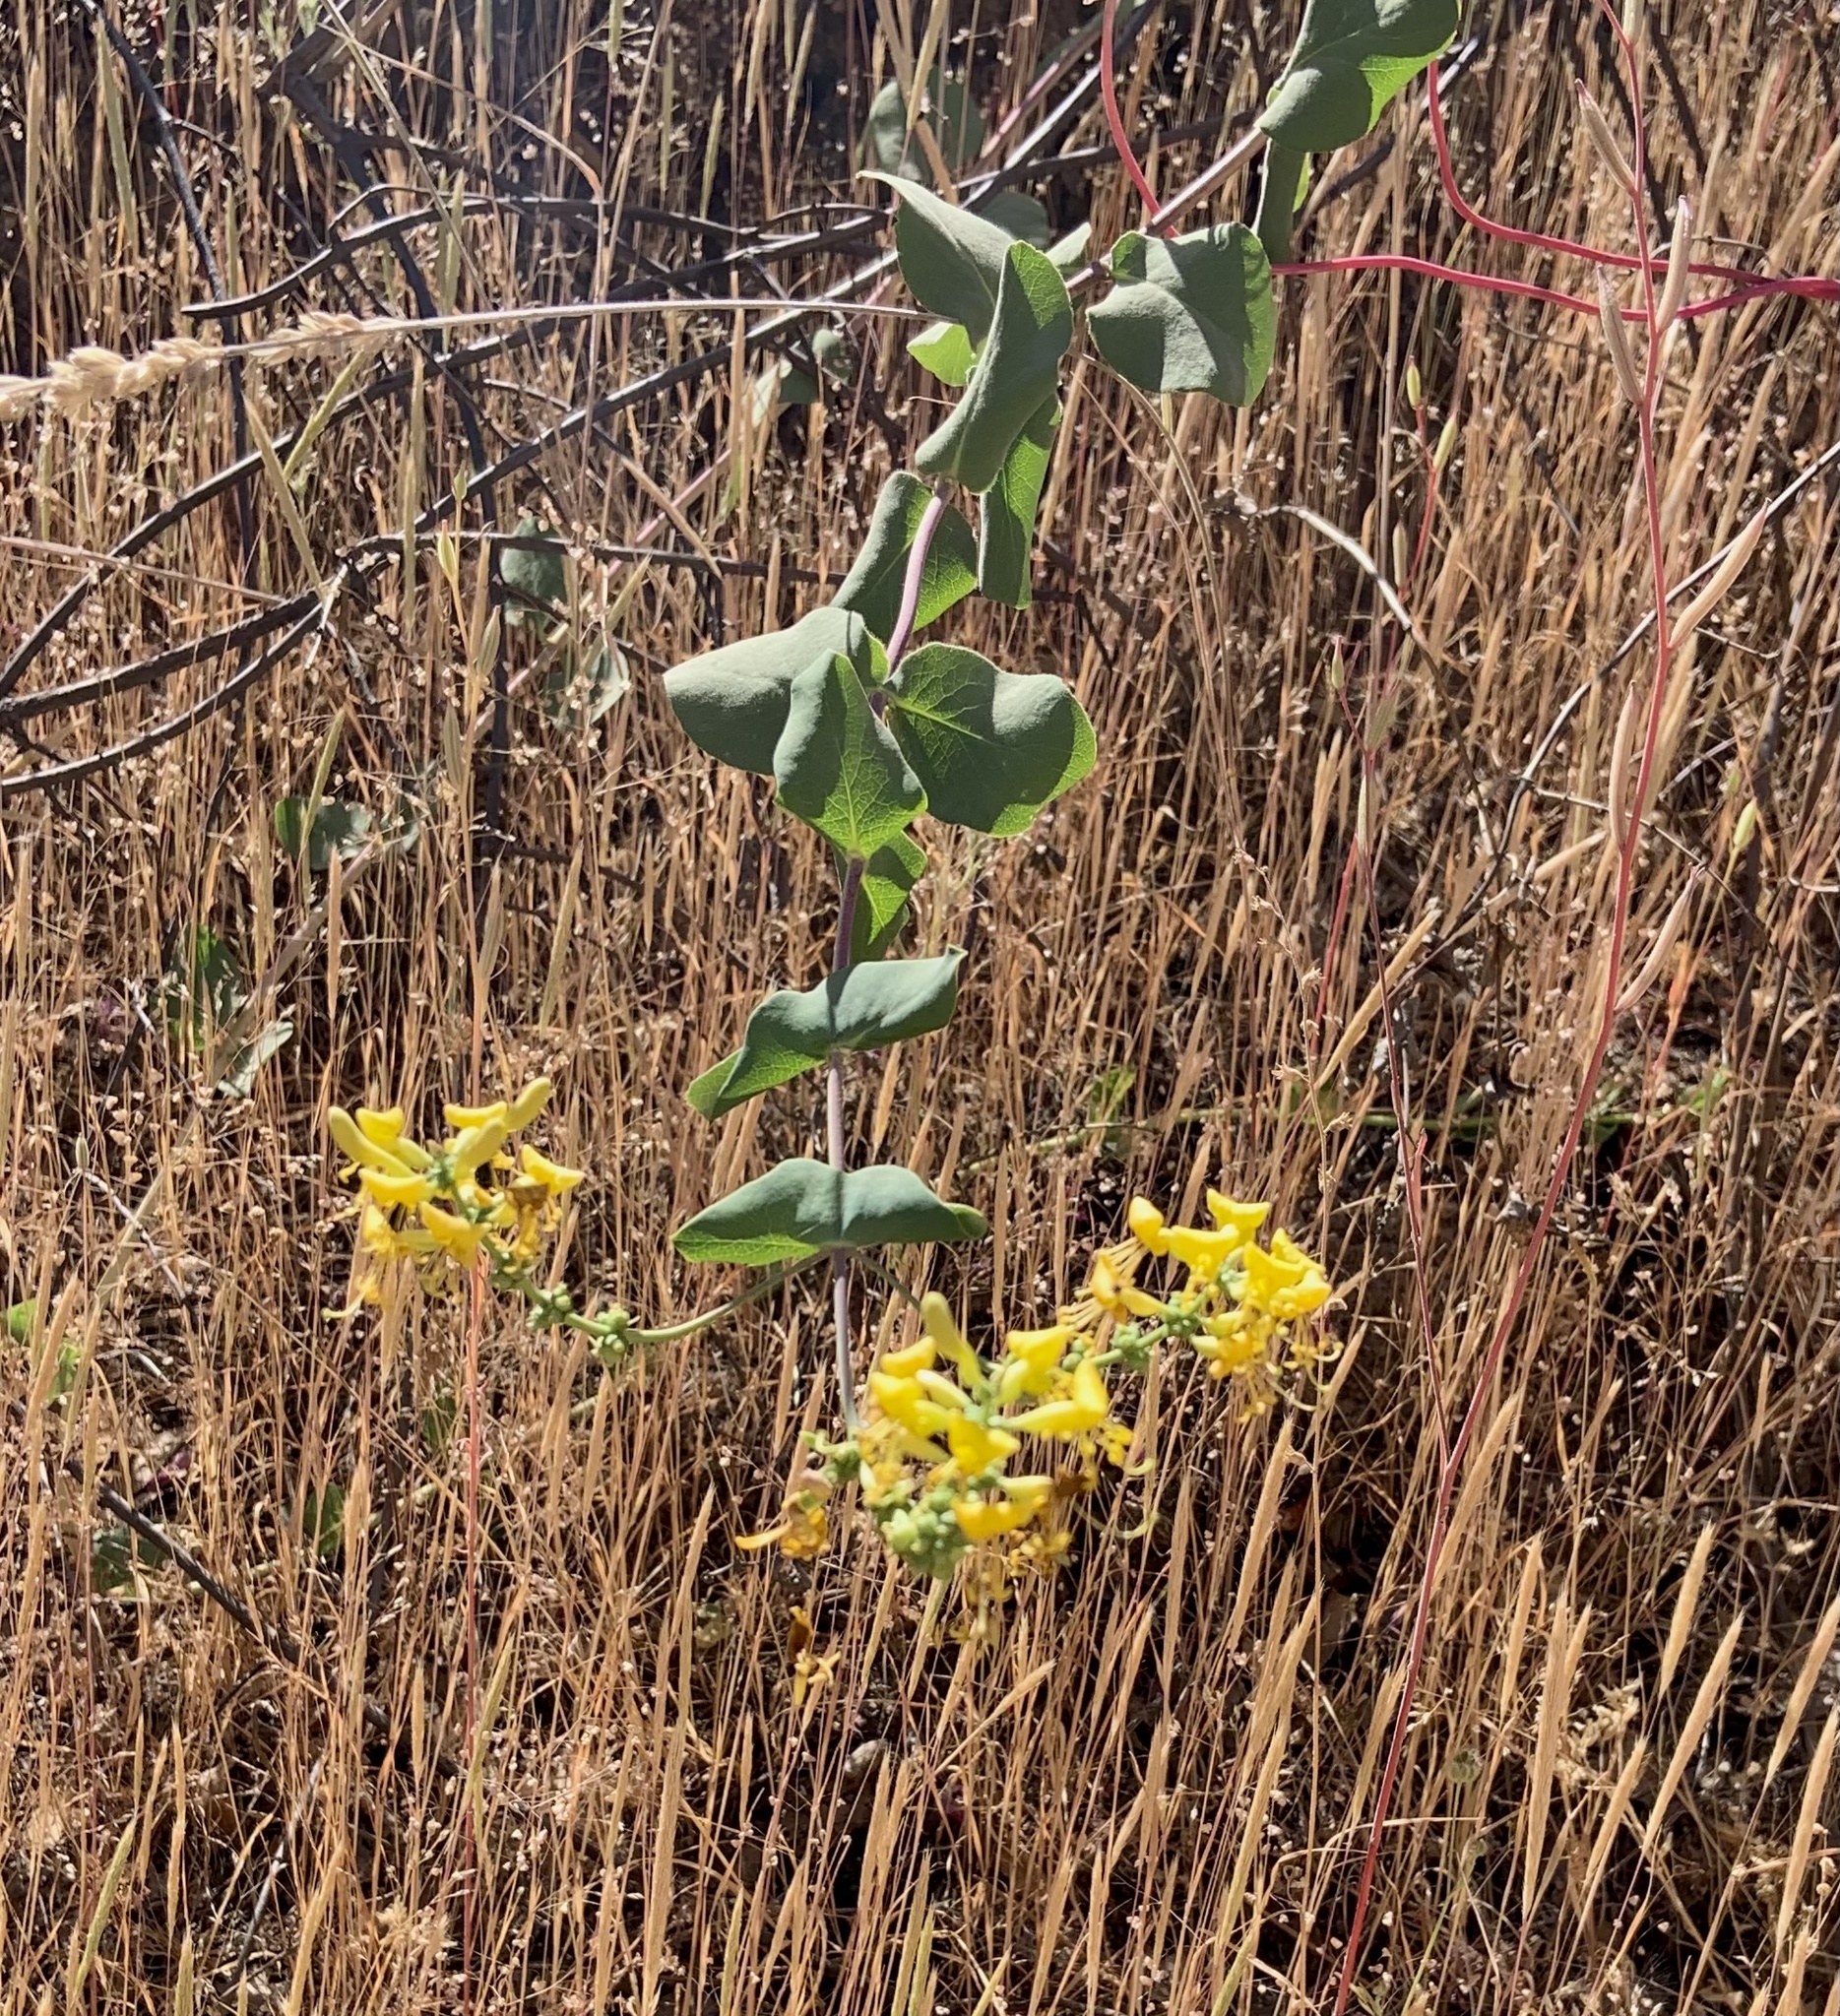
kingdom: Plantae
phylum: Tracheophyta
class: Magnoliopsida
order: Dipsacales
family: Caprifoliaceae
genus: Lonicera
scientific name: Lonicera interrupta
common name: Chaparral honeysuckle
